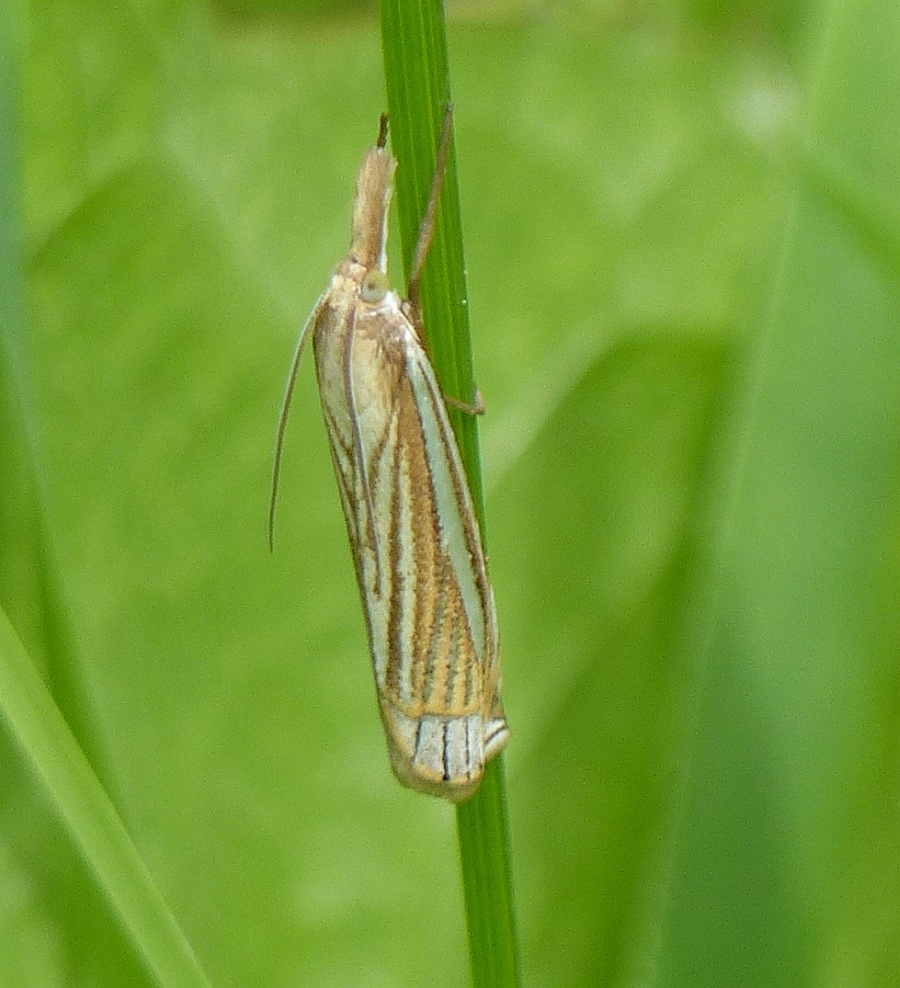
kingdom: Animalia
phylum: Arthropoda
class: Insecta
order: Lepidoptera
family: Crambidae
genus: Crambus
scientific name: Crambus laqueatellus
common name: Eastern grass-veneer
